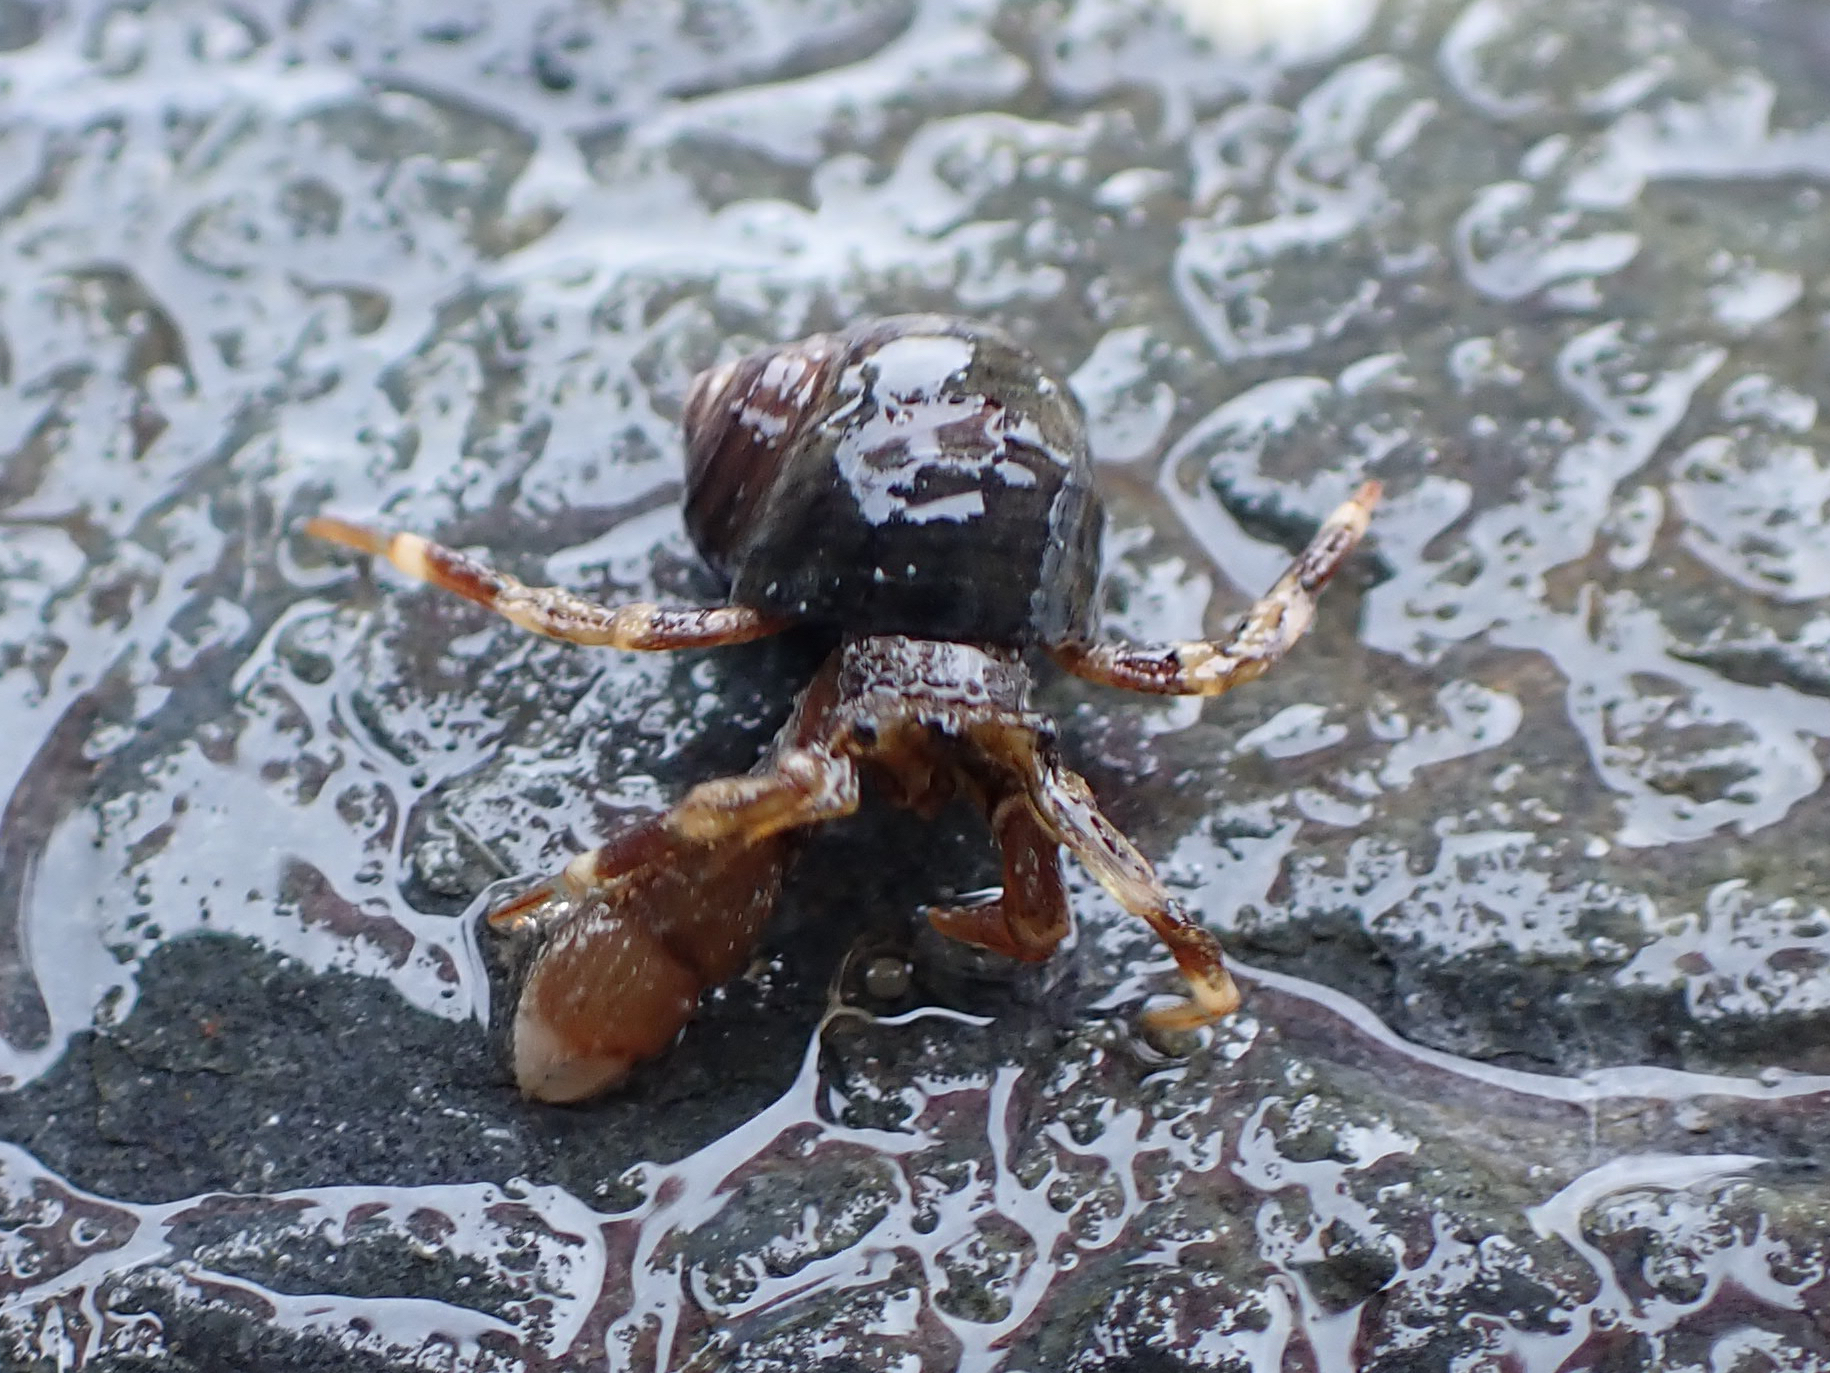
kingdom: Animalia
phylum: Arthropoda
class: Malacostraca
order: Decapoda
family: Paguridae
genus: Pagurus
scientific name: Pagurus hirsutiusculus
